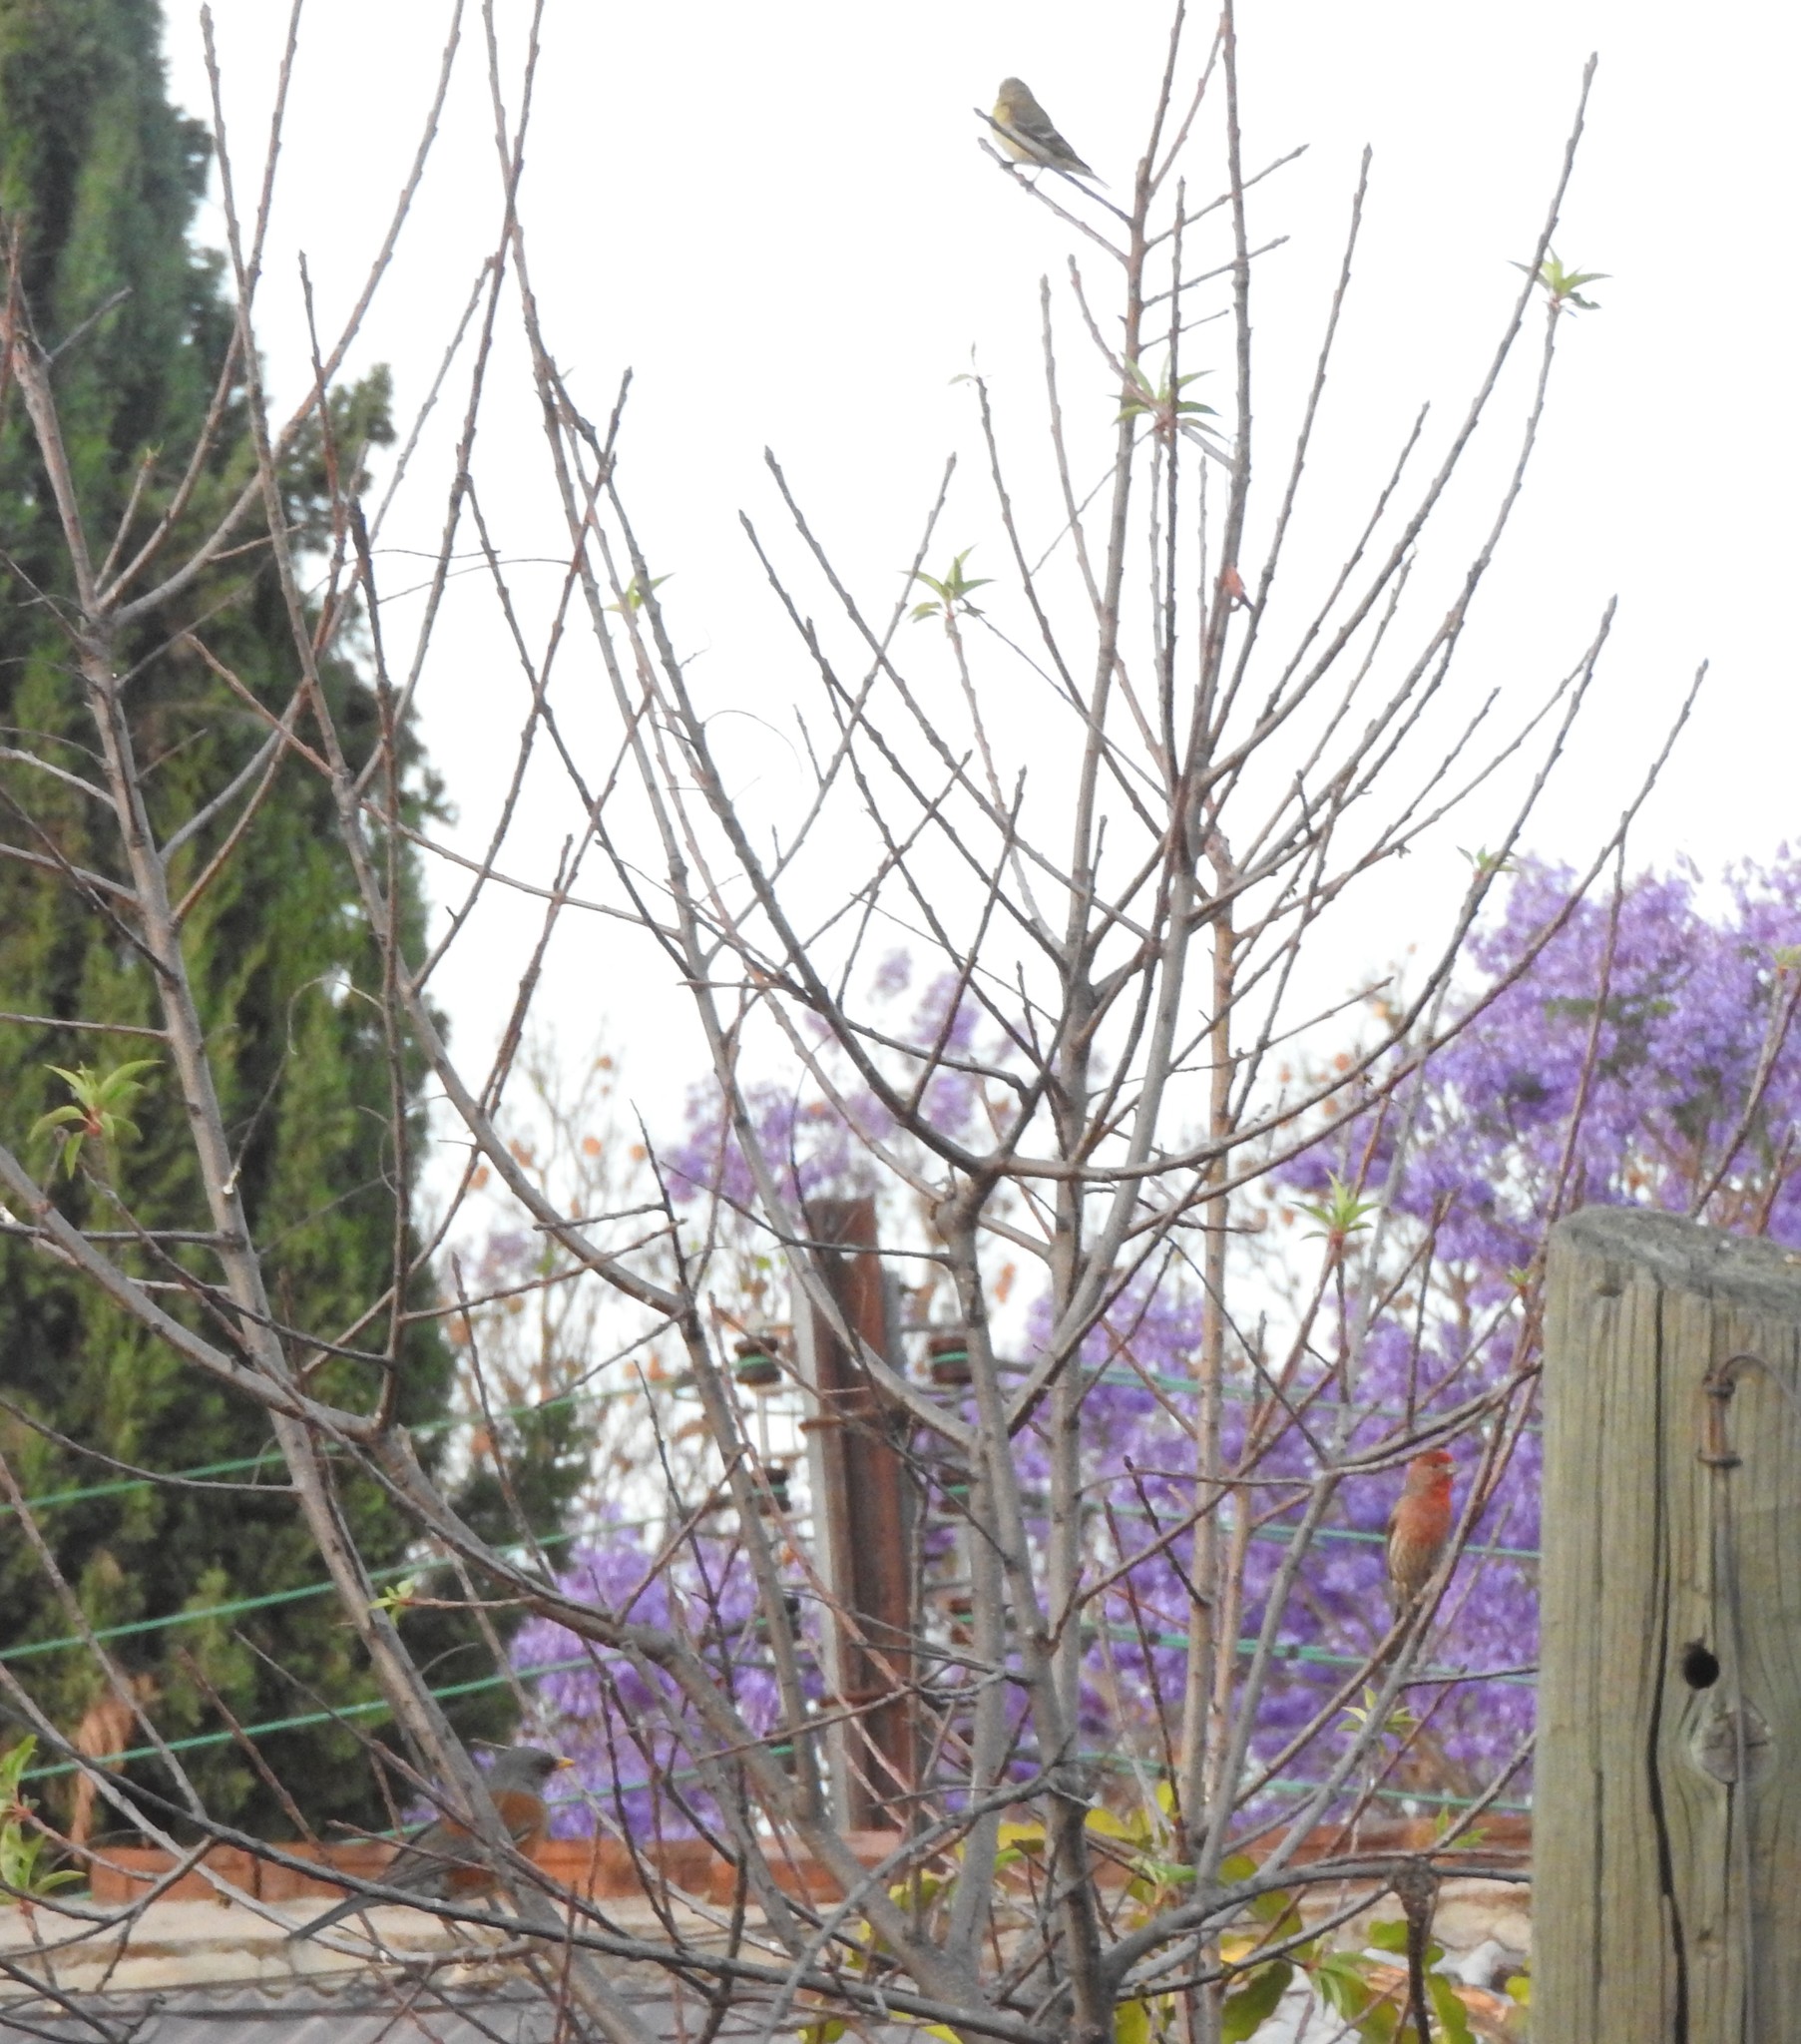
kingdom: Animalia
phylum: Chordata
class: Aves
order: Passeriformes
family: Fringillidae
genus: Haemorhous
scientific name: Haemorhous mexicanus
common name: House finch
